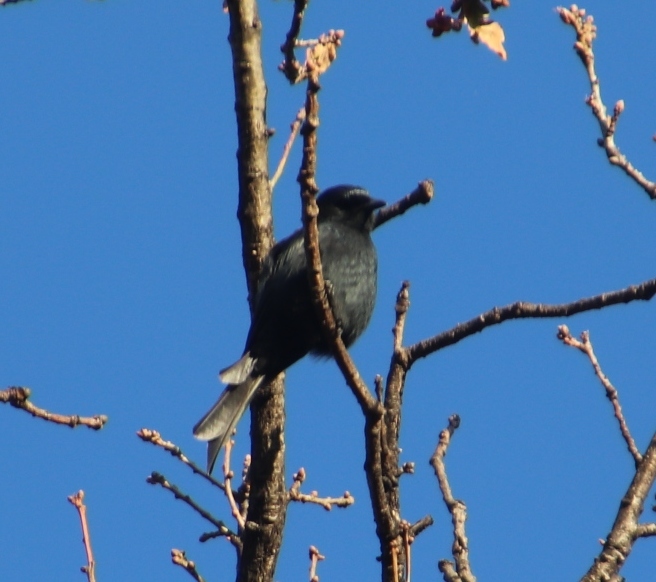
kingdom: Animalia
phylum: Chordata
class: Aves
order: Passeriformes
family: Dicruridae
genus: Dicrurus
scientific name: Dicrurus adsimilis
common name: Fork-tailed drongo
